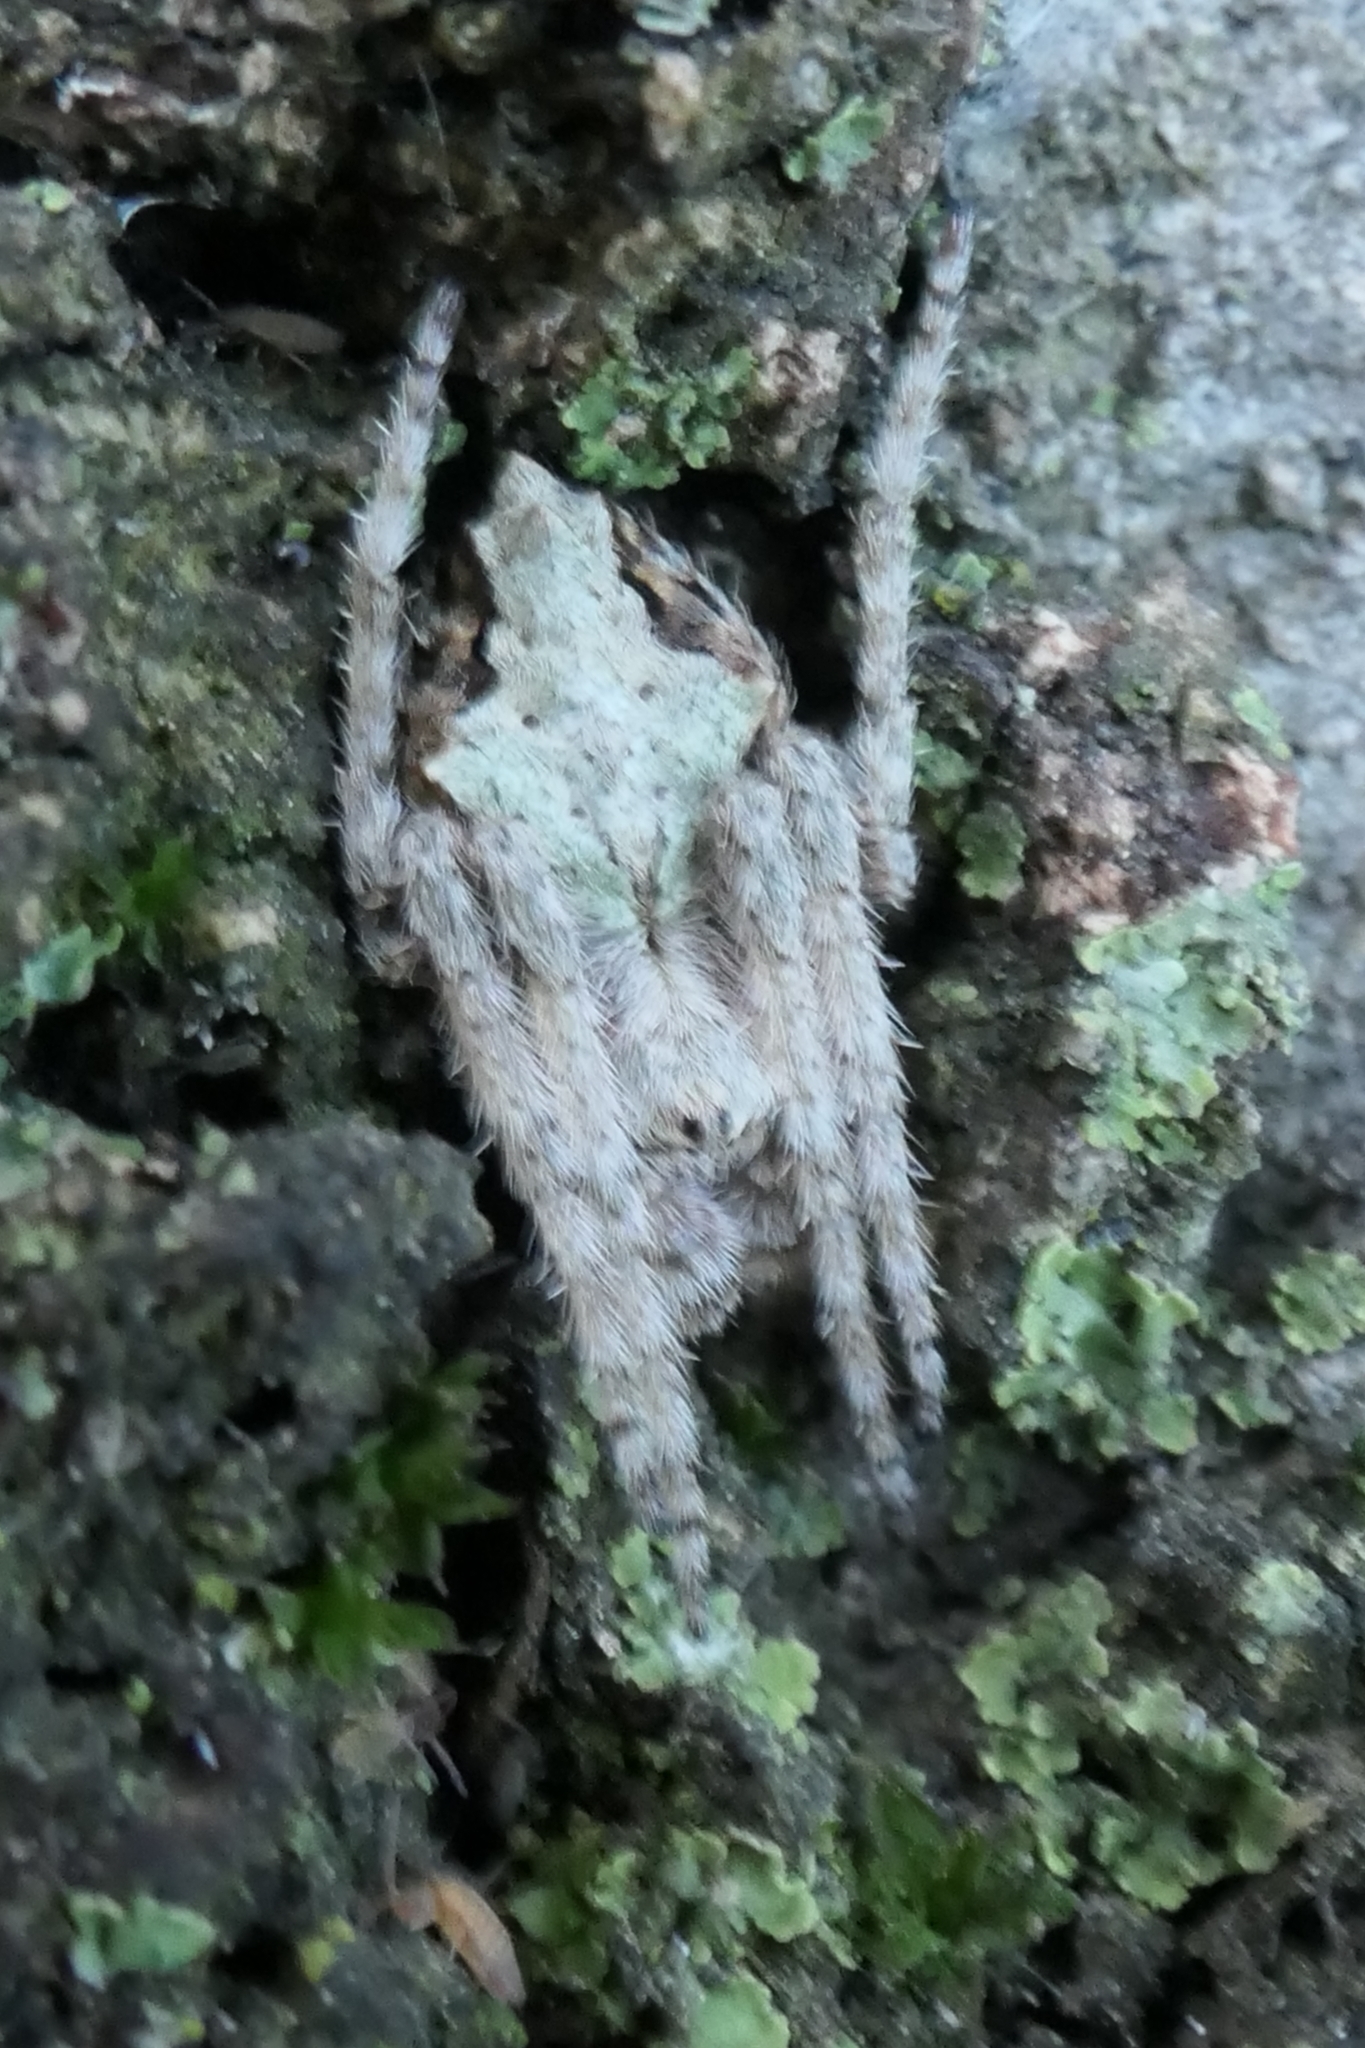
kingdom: Animalia
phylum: Arthropoda
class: Arachnida
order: Araneae
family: Araneidae
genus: Eriophora
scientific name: Eriophora pustulosa
